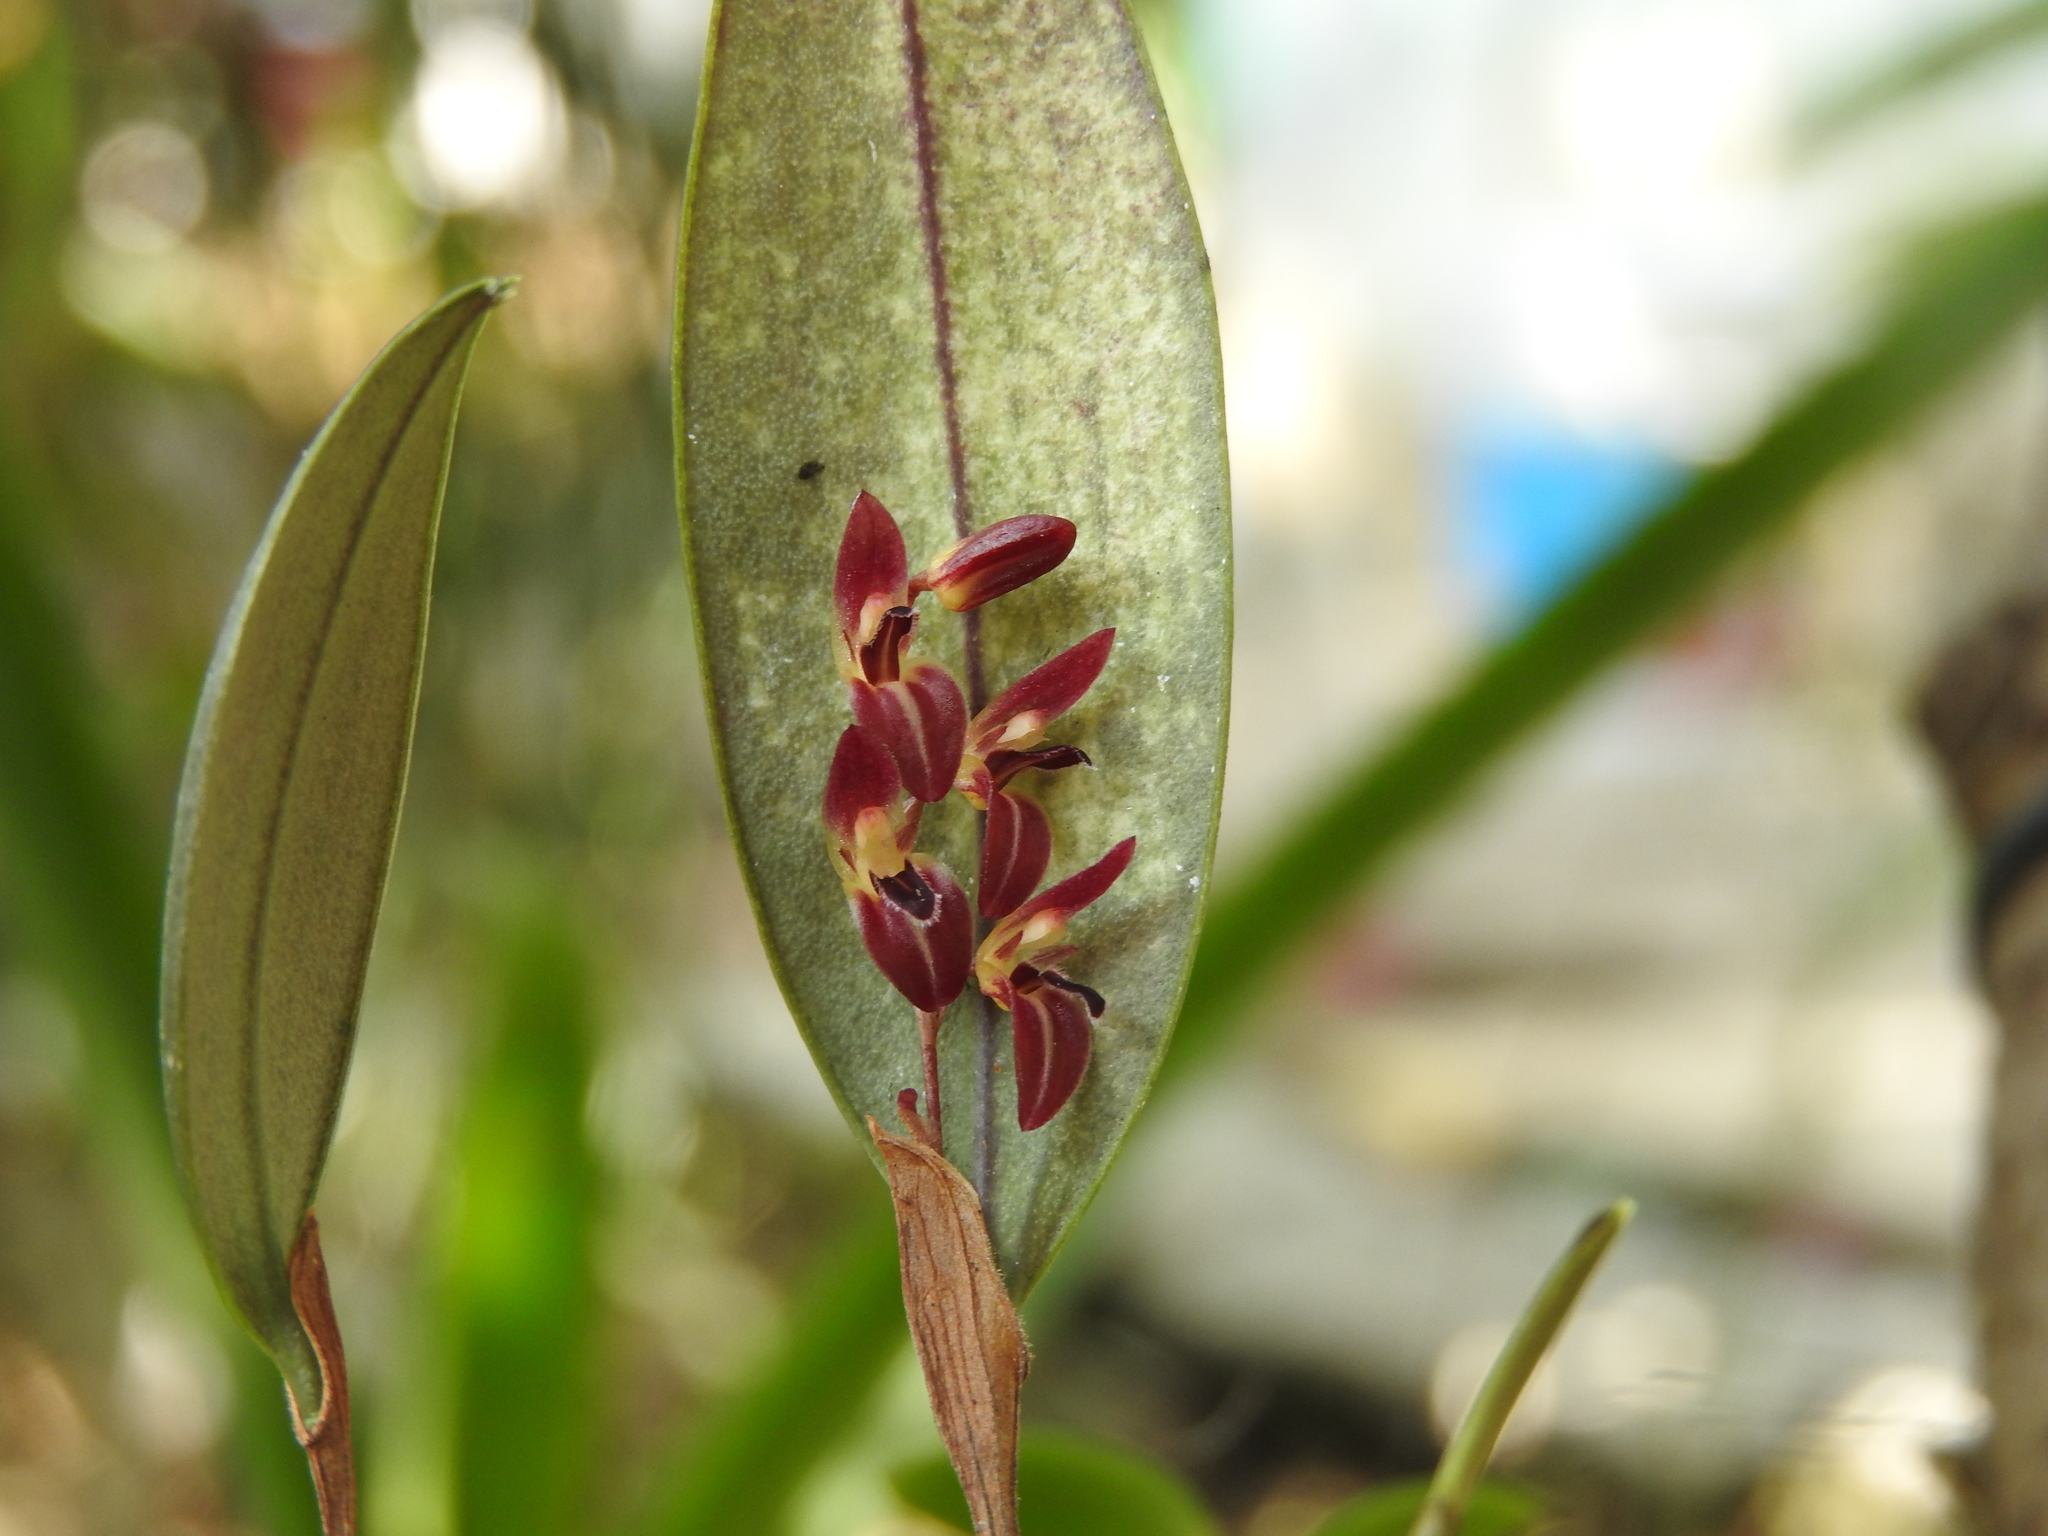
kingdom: Plantae
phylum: Tracheophyta
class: Liliopsida
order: Asparagales
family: Orchidaceae
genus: Trichosalpinx
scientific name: Trichosalpinx blaisdellii
